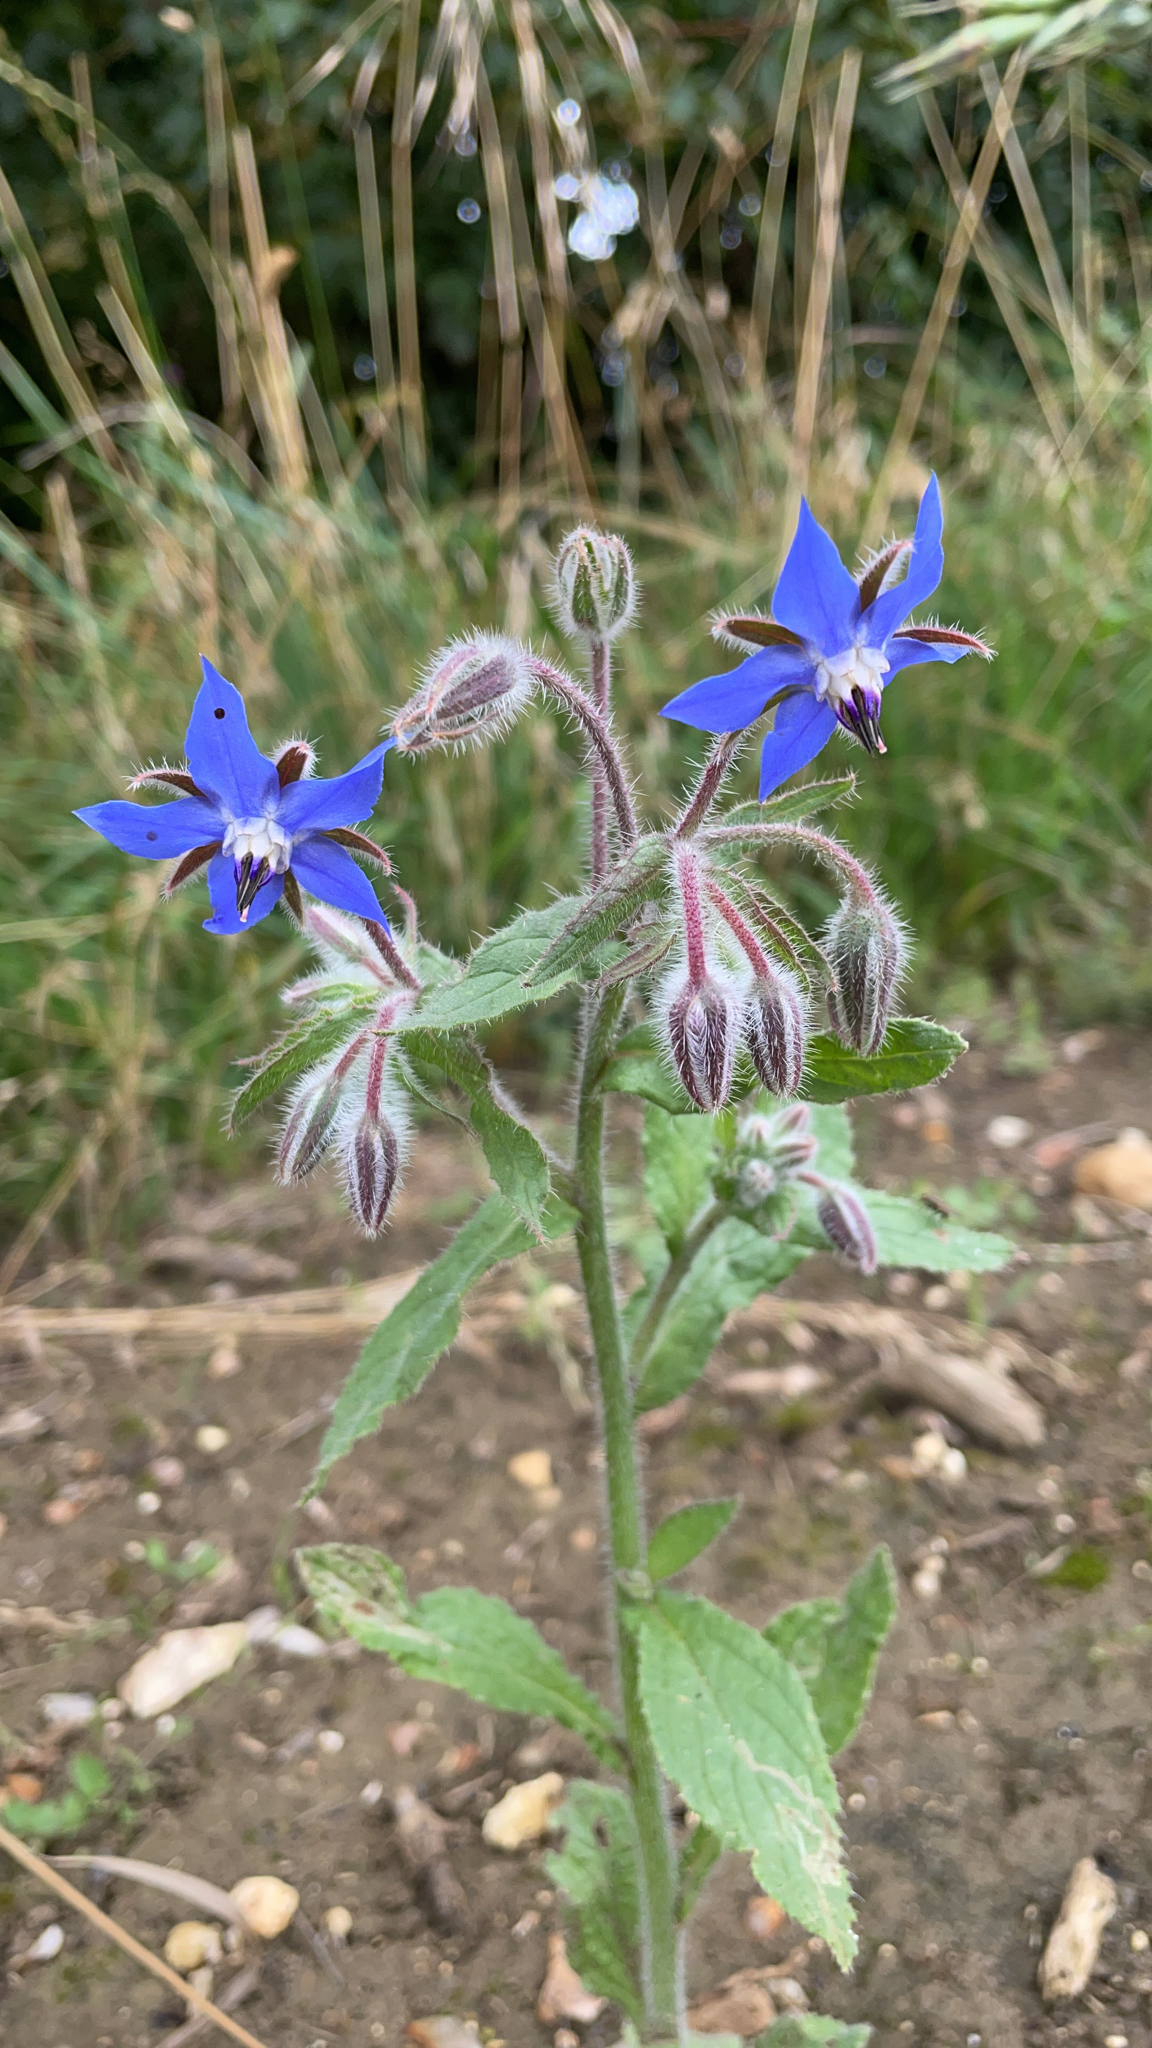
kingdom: Plantae
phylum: Tracheophyta
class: Magnoliopsida
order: Boraginales
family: Boraginaceae
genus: Borago
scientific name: Borago officinalis
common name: Borage
